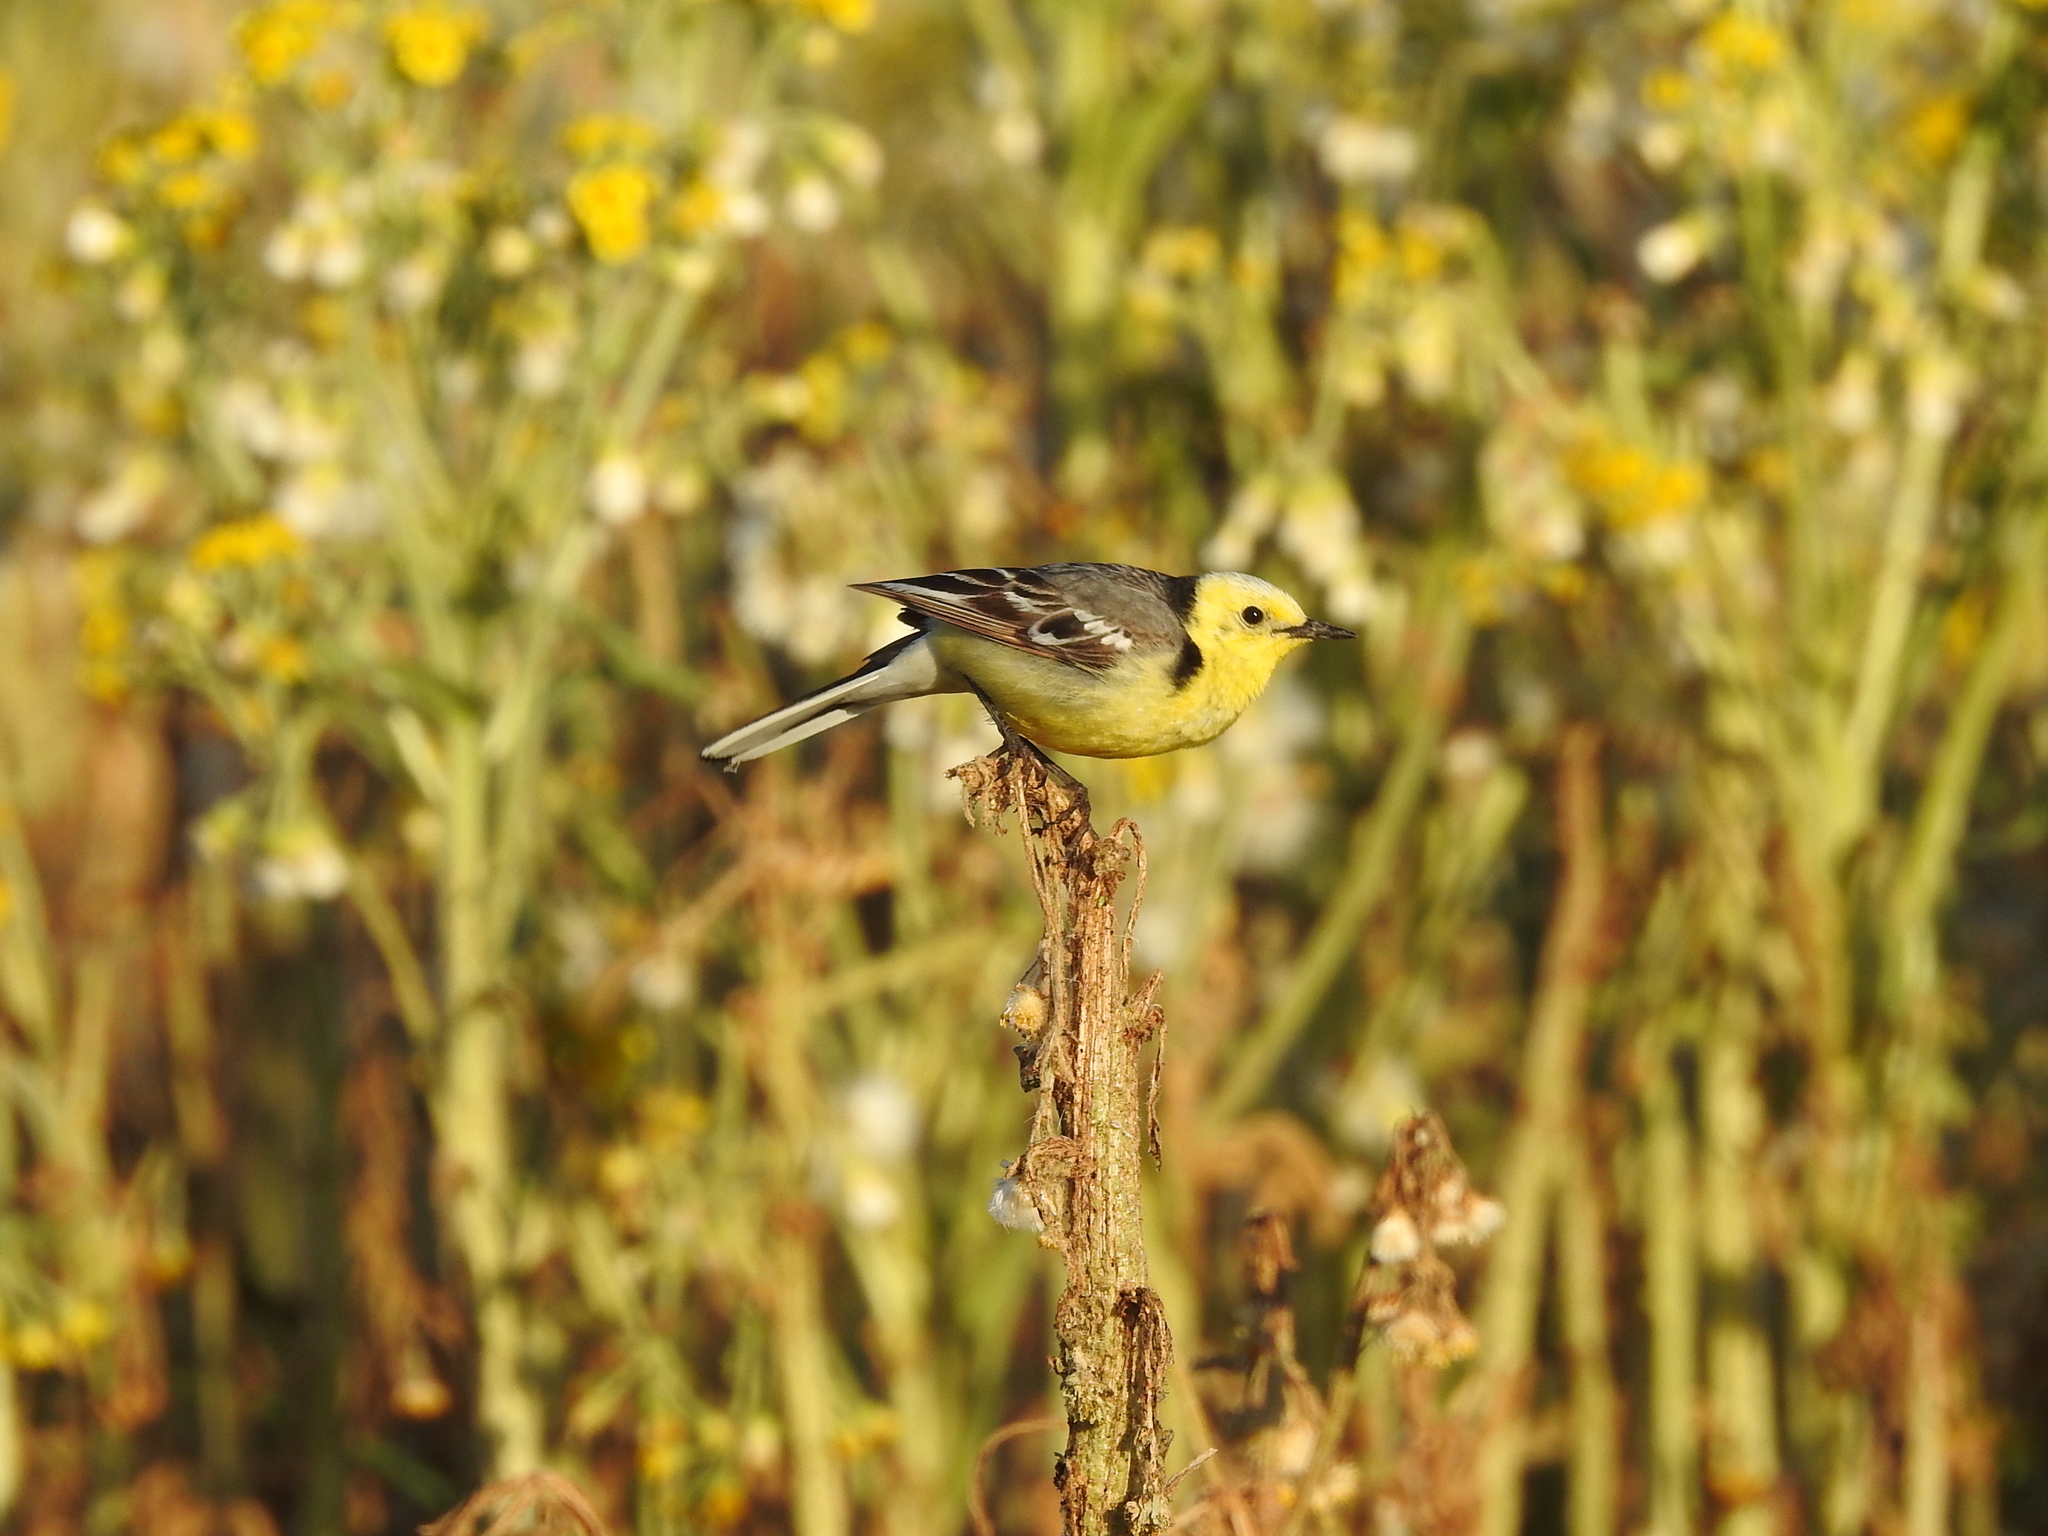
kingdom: Animalia
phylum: Chordata
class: Aves
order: Passeriformes
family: Motacillidae
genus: Motacilla
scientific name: Motacilla citreola
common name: Citrine wagtail
